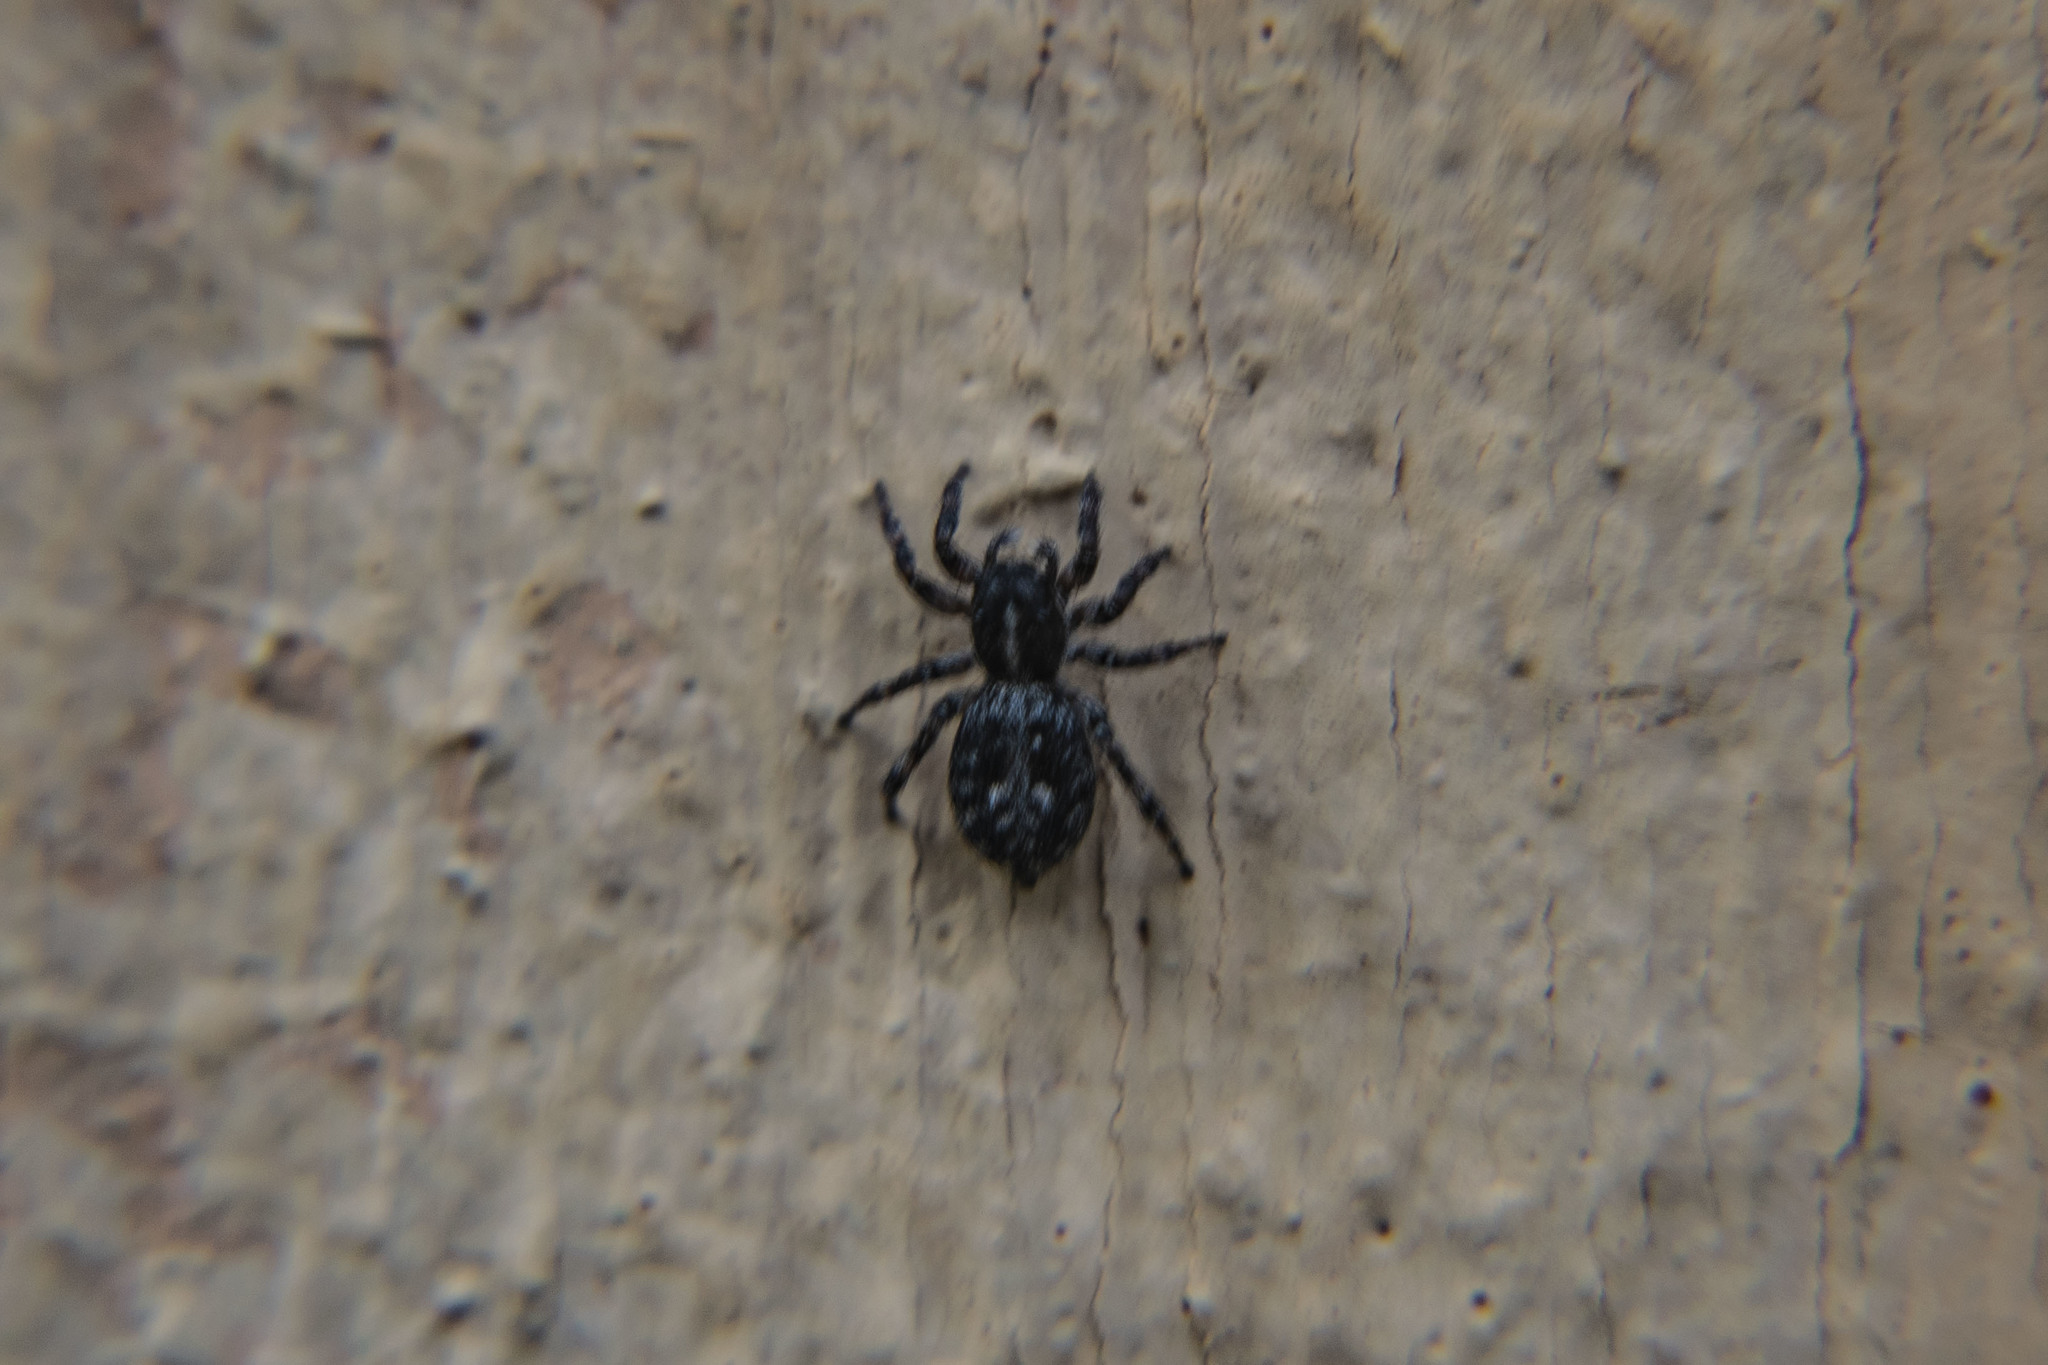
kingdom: Animalia
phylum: Arthropoda
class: Arachnida
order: Araneae
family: Salticidae
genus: Attulus
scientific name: Attulus terebratus
